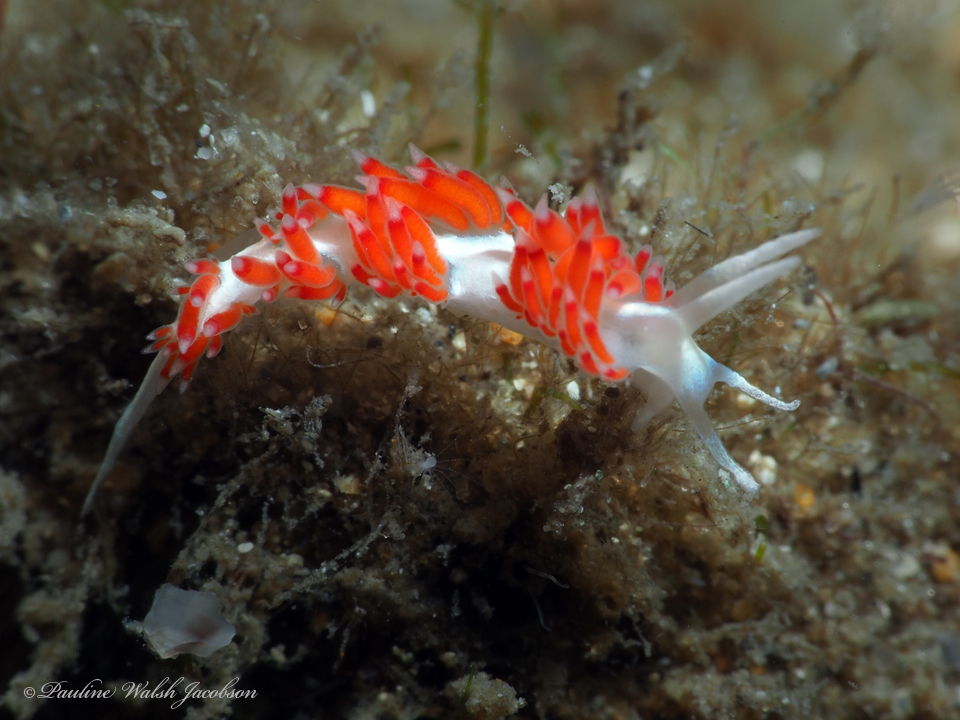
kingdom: Animalia
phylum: Mollusca
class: Gastropoda
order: Nudibranchia
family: Flabellinidae
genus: Flabellina
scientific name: Flabellina dushia
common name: Dushia flabellina
